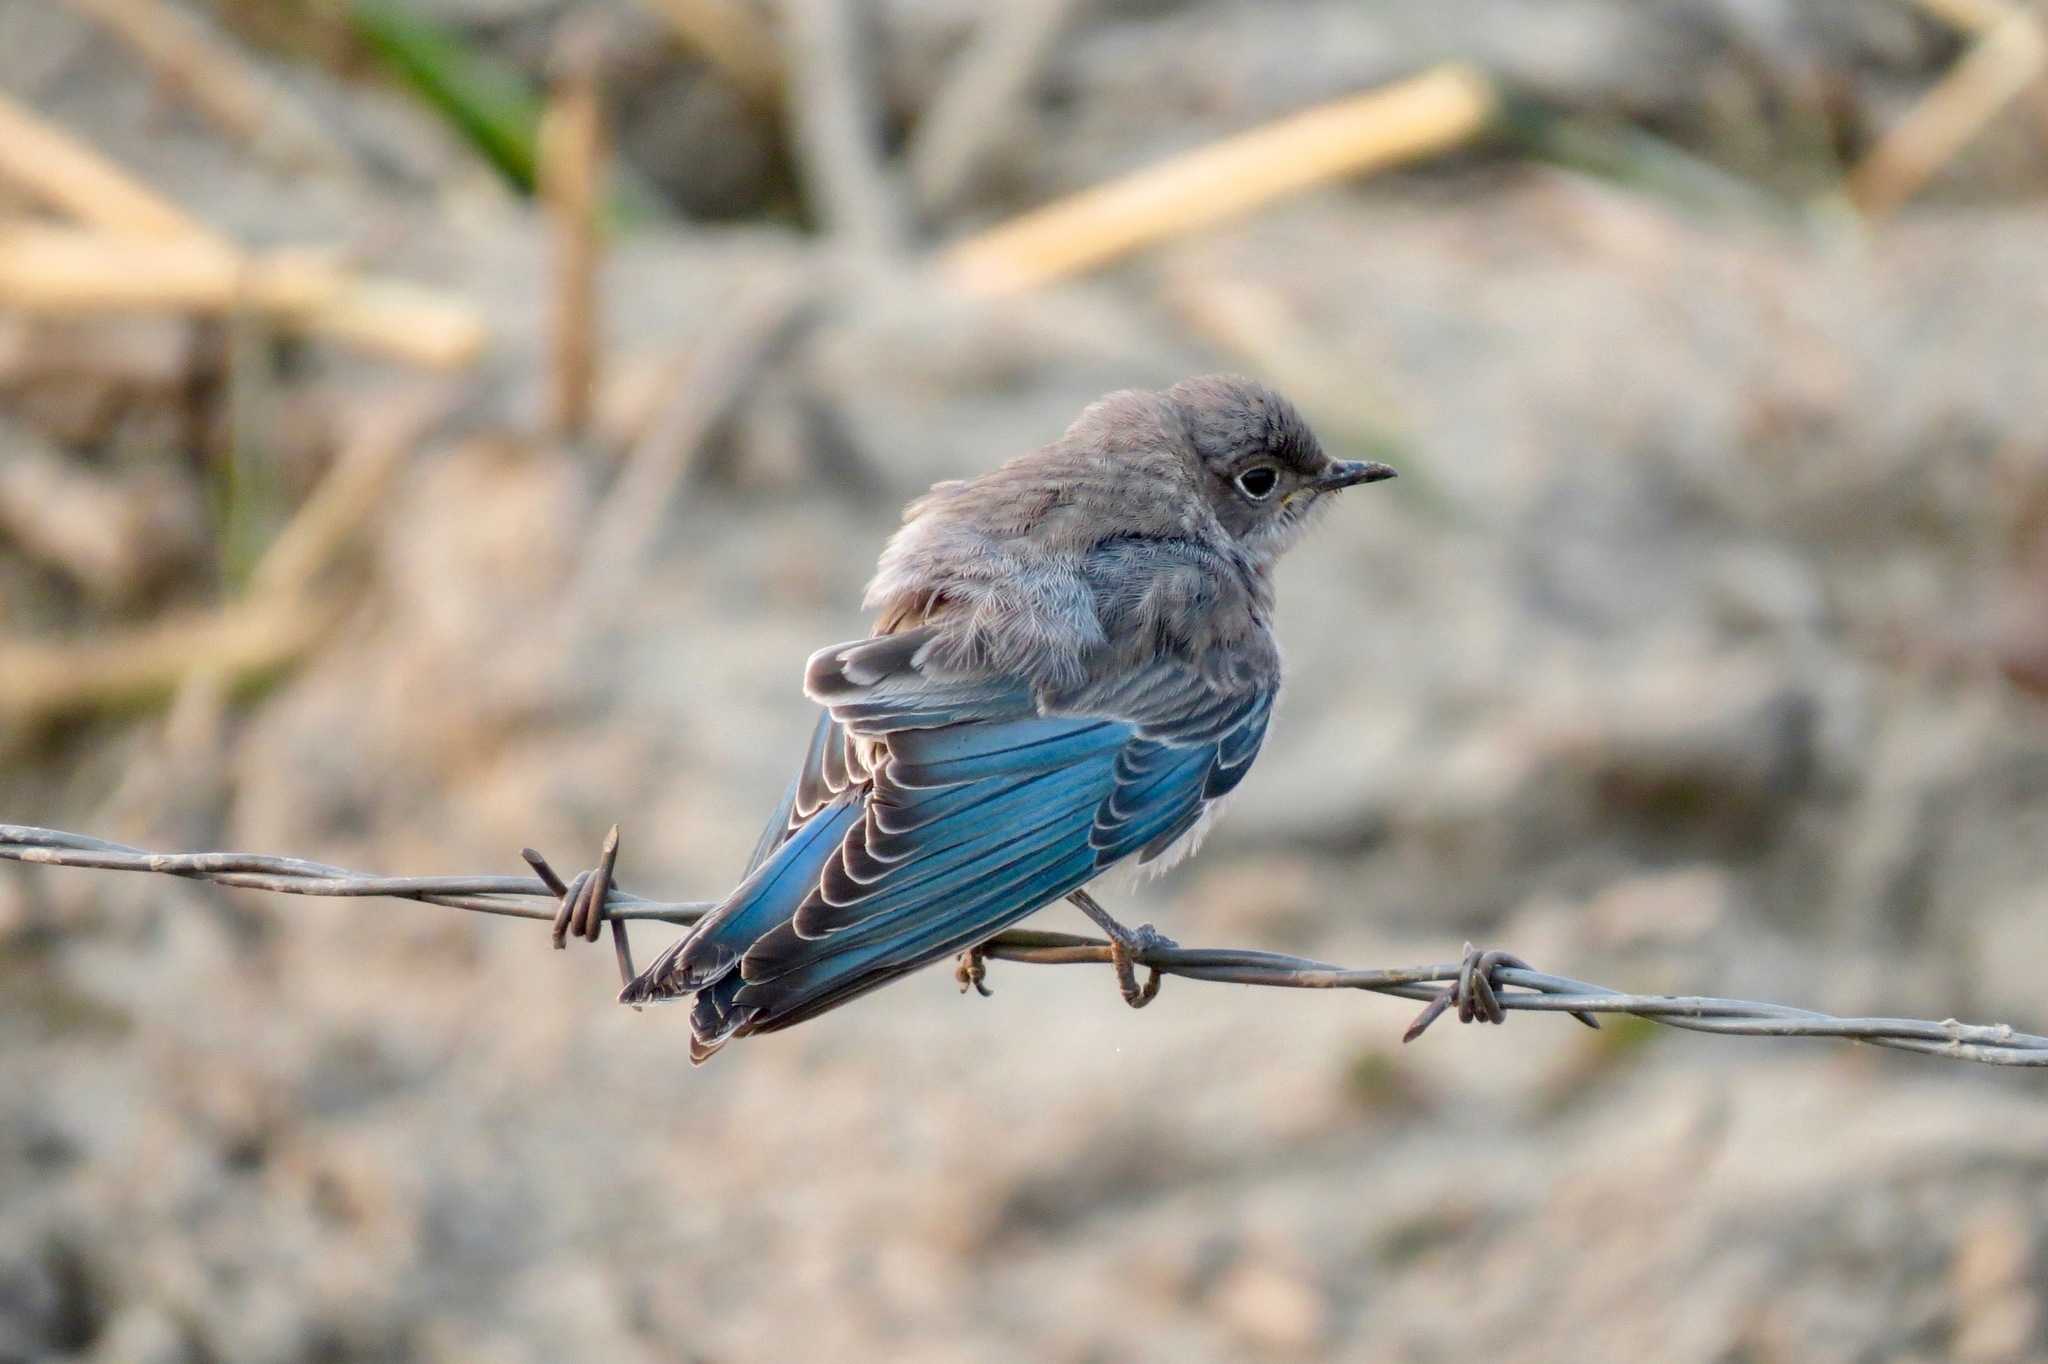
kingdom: Animalia
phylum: Chordata
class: Aves
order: Passeriformes
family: Turdidae
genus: Sialia
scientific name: Sialia currucoides
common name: Mountain bluebird
